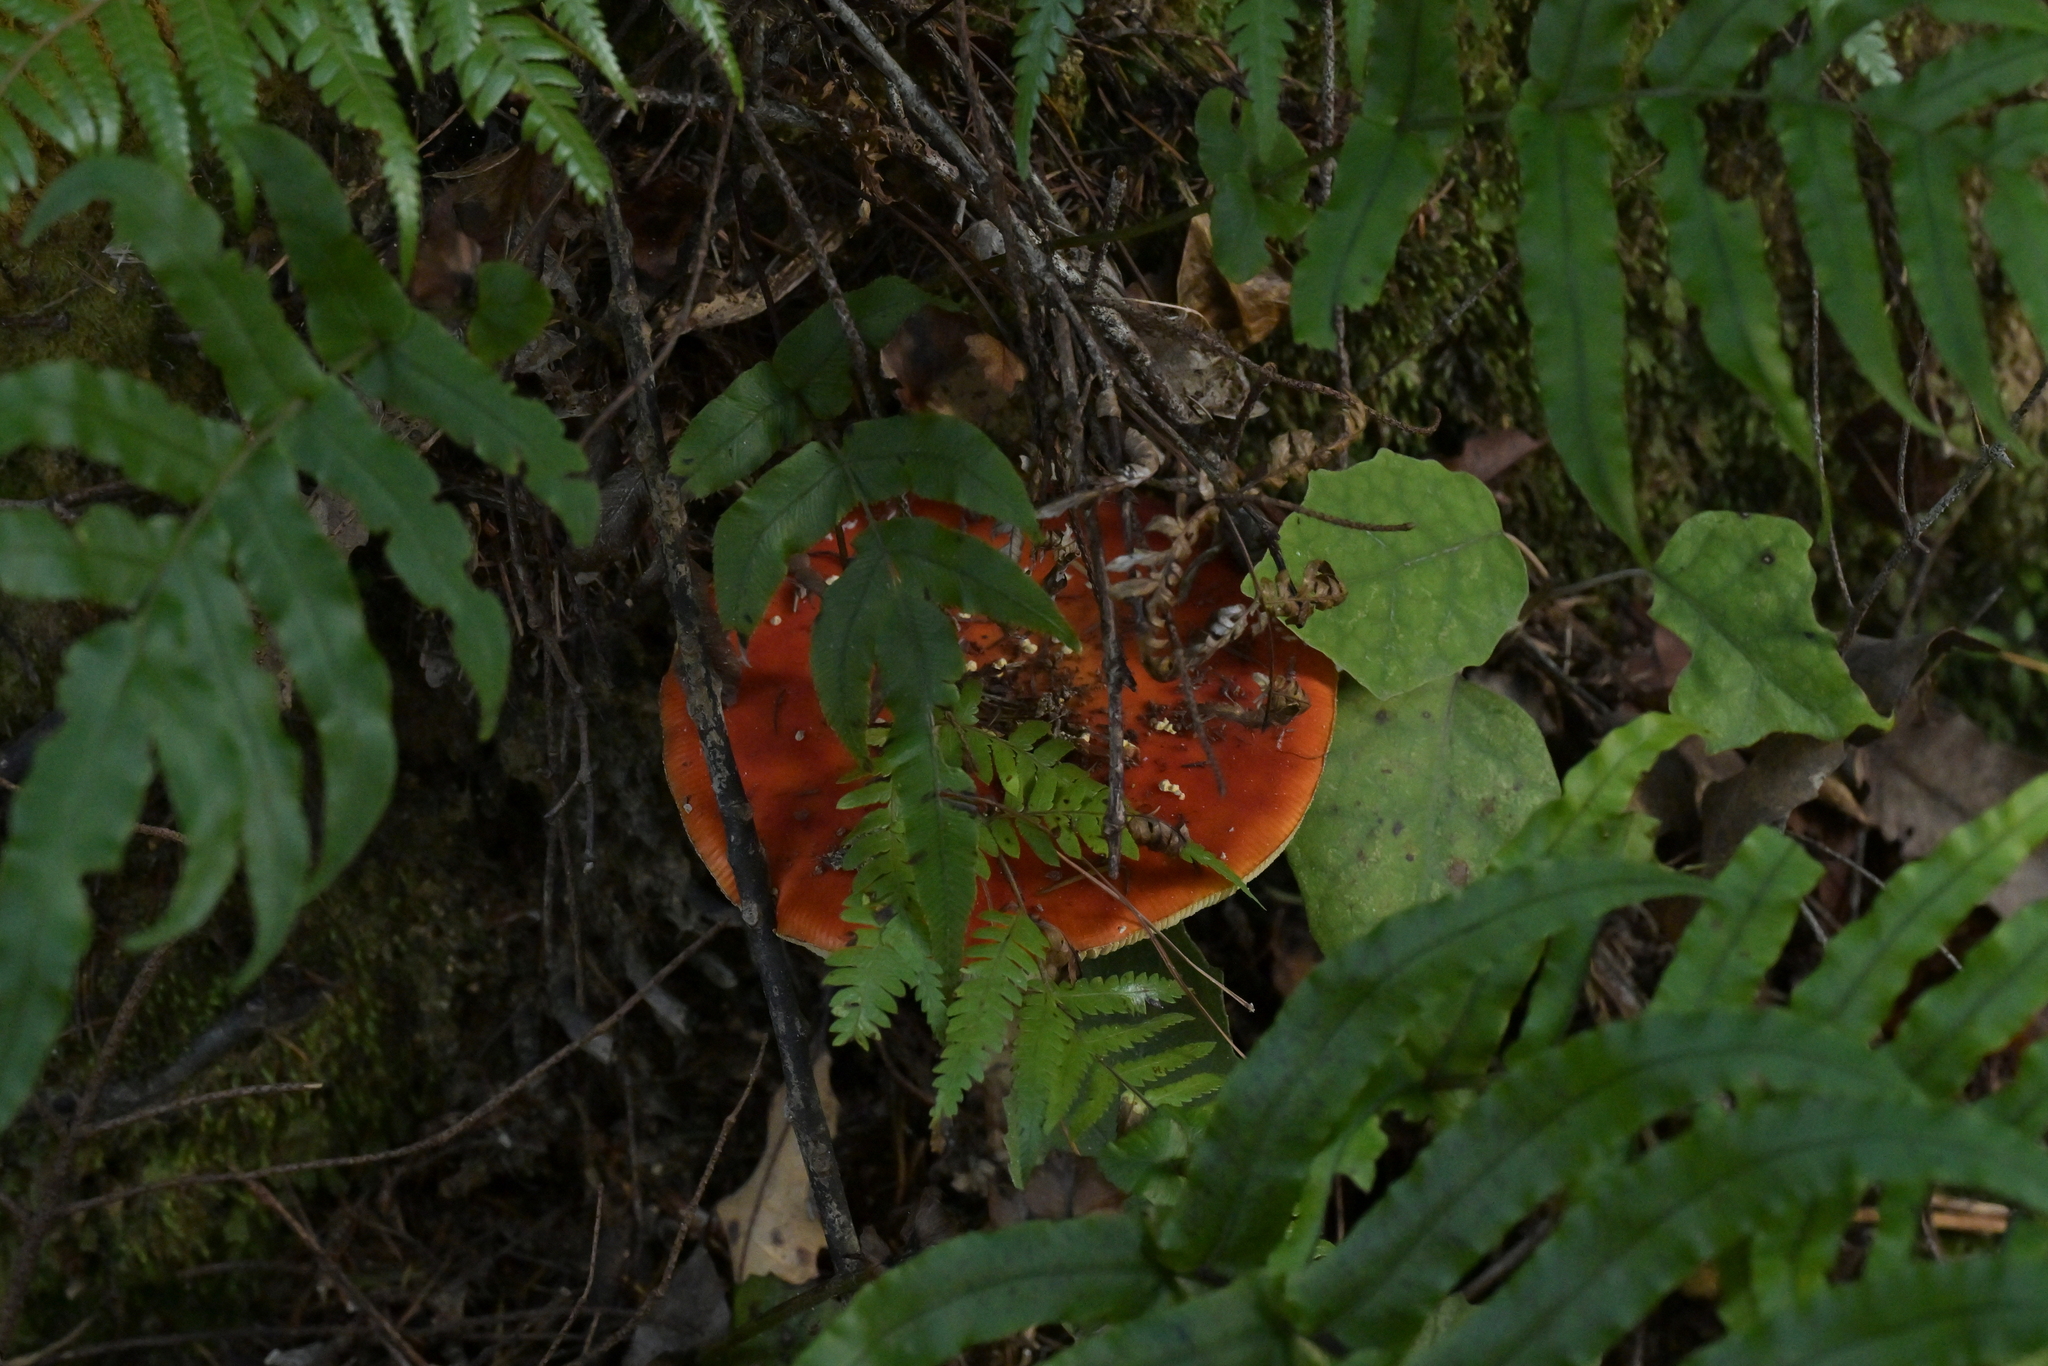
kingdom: Fungi
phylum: Basidiomycota
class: Agaricomycetes
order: Agaricales
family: Amanitaceae
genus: Amanita
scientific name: Amanita muscaria
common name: Fly agaric
